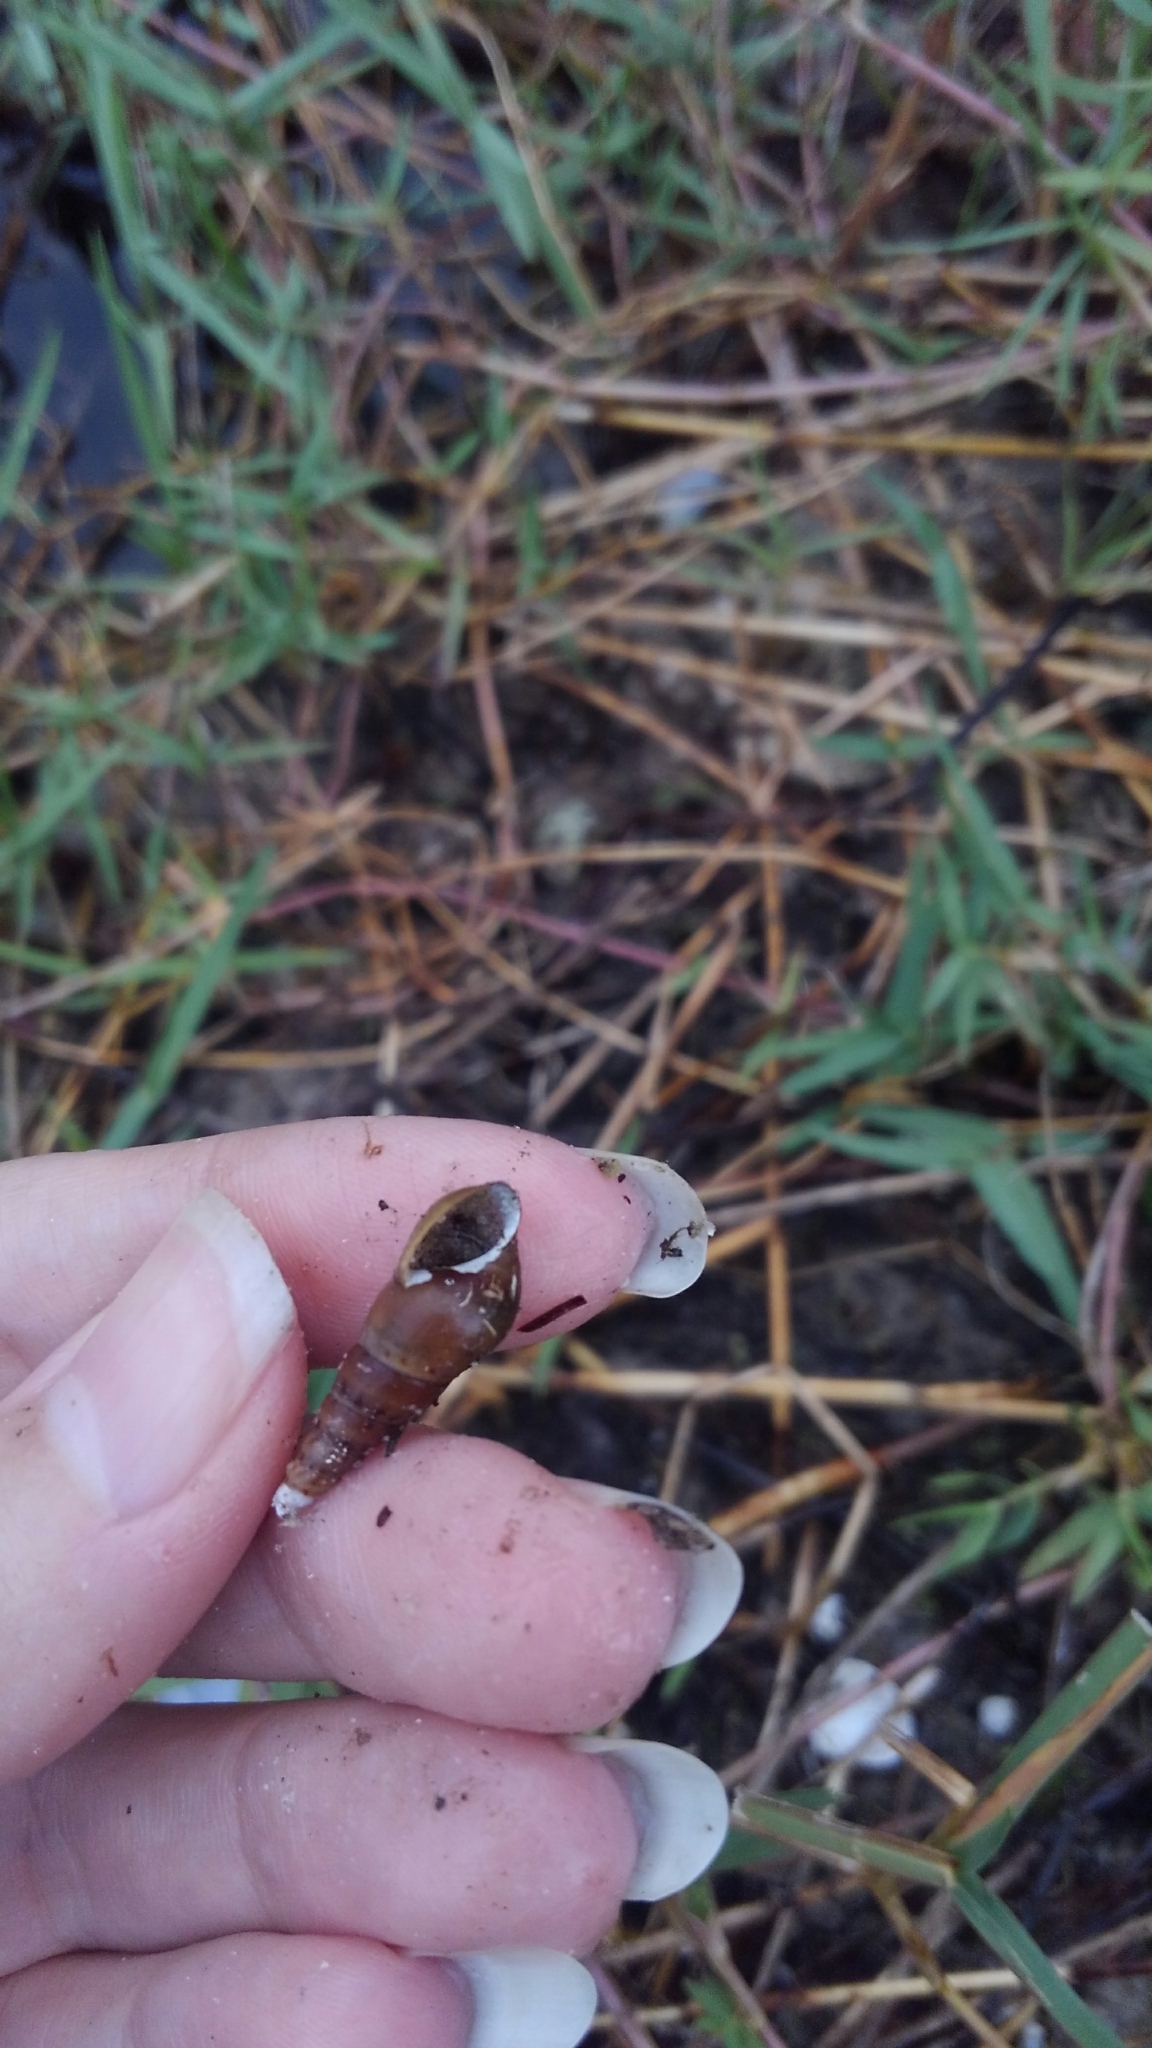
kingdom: Animalia
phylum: Mollusca
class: Gastropoda
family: Thiaridae
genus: Melanoides
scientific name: Melanoides tuberculata
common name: Red-rim melania
